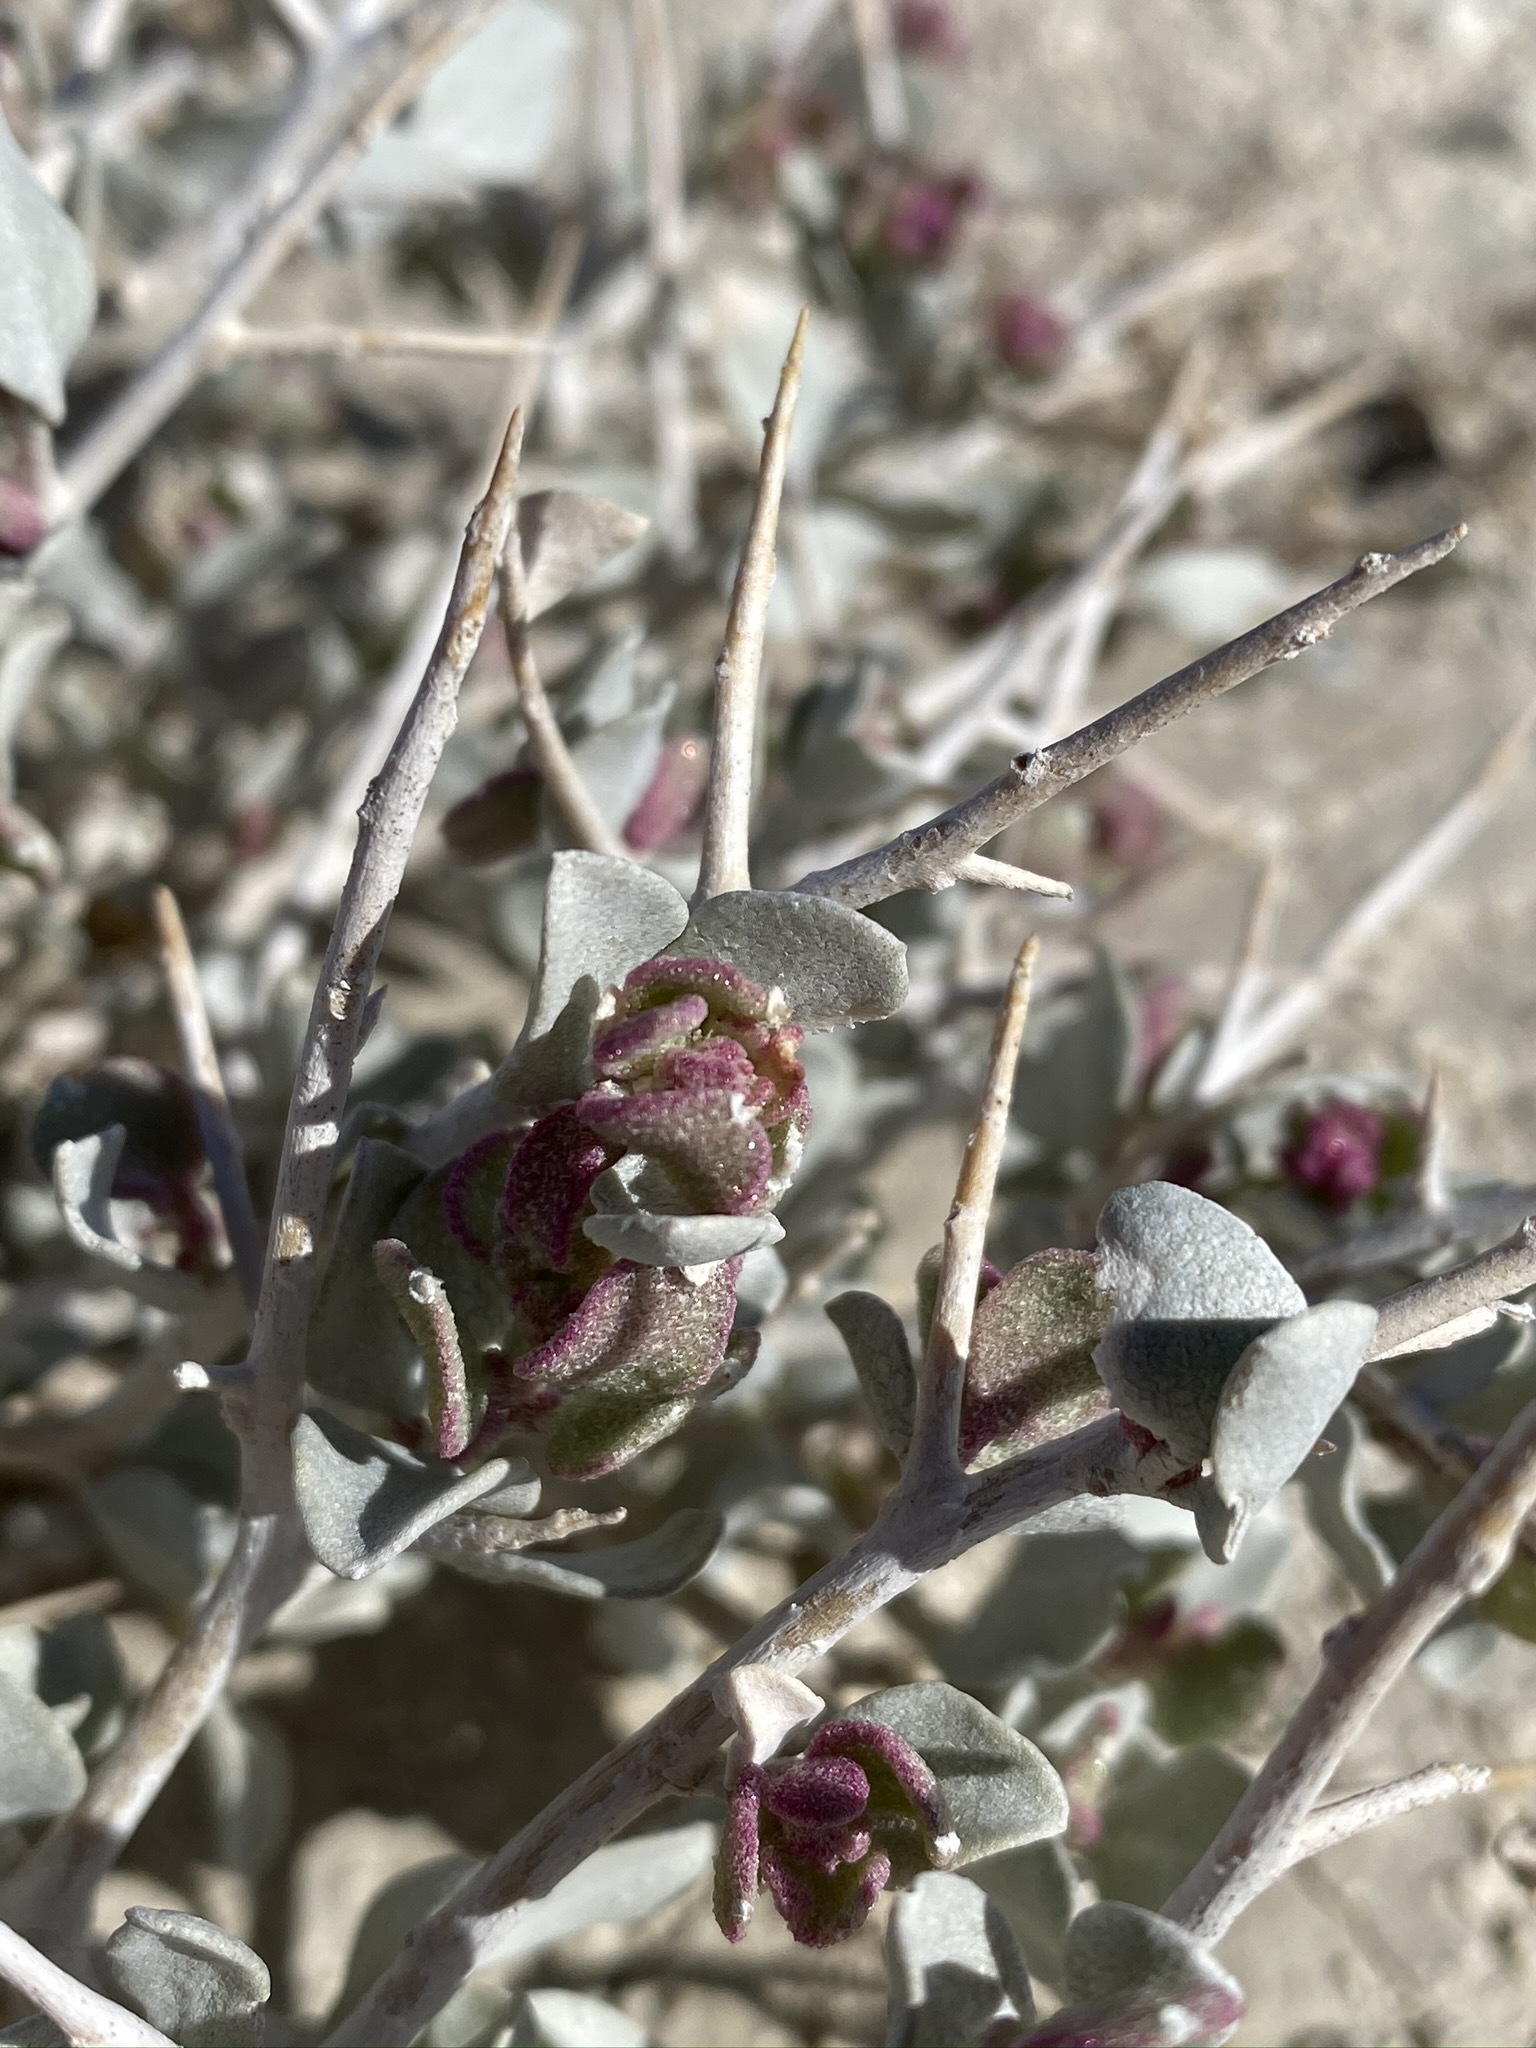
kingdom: Plantae
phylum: Tracheophyta
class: Magnoliopsida
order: Caryophyllales
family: Amaranthaceae
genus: Atriplex
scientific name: Atriplex confertifolia
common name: Shadscale
